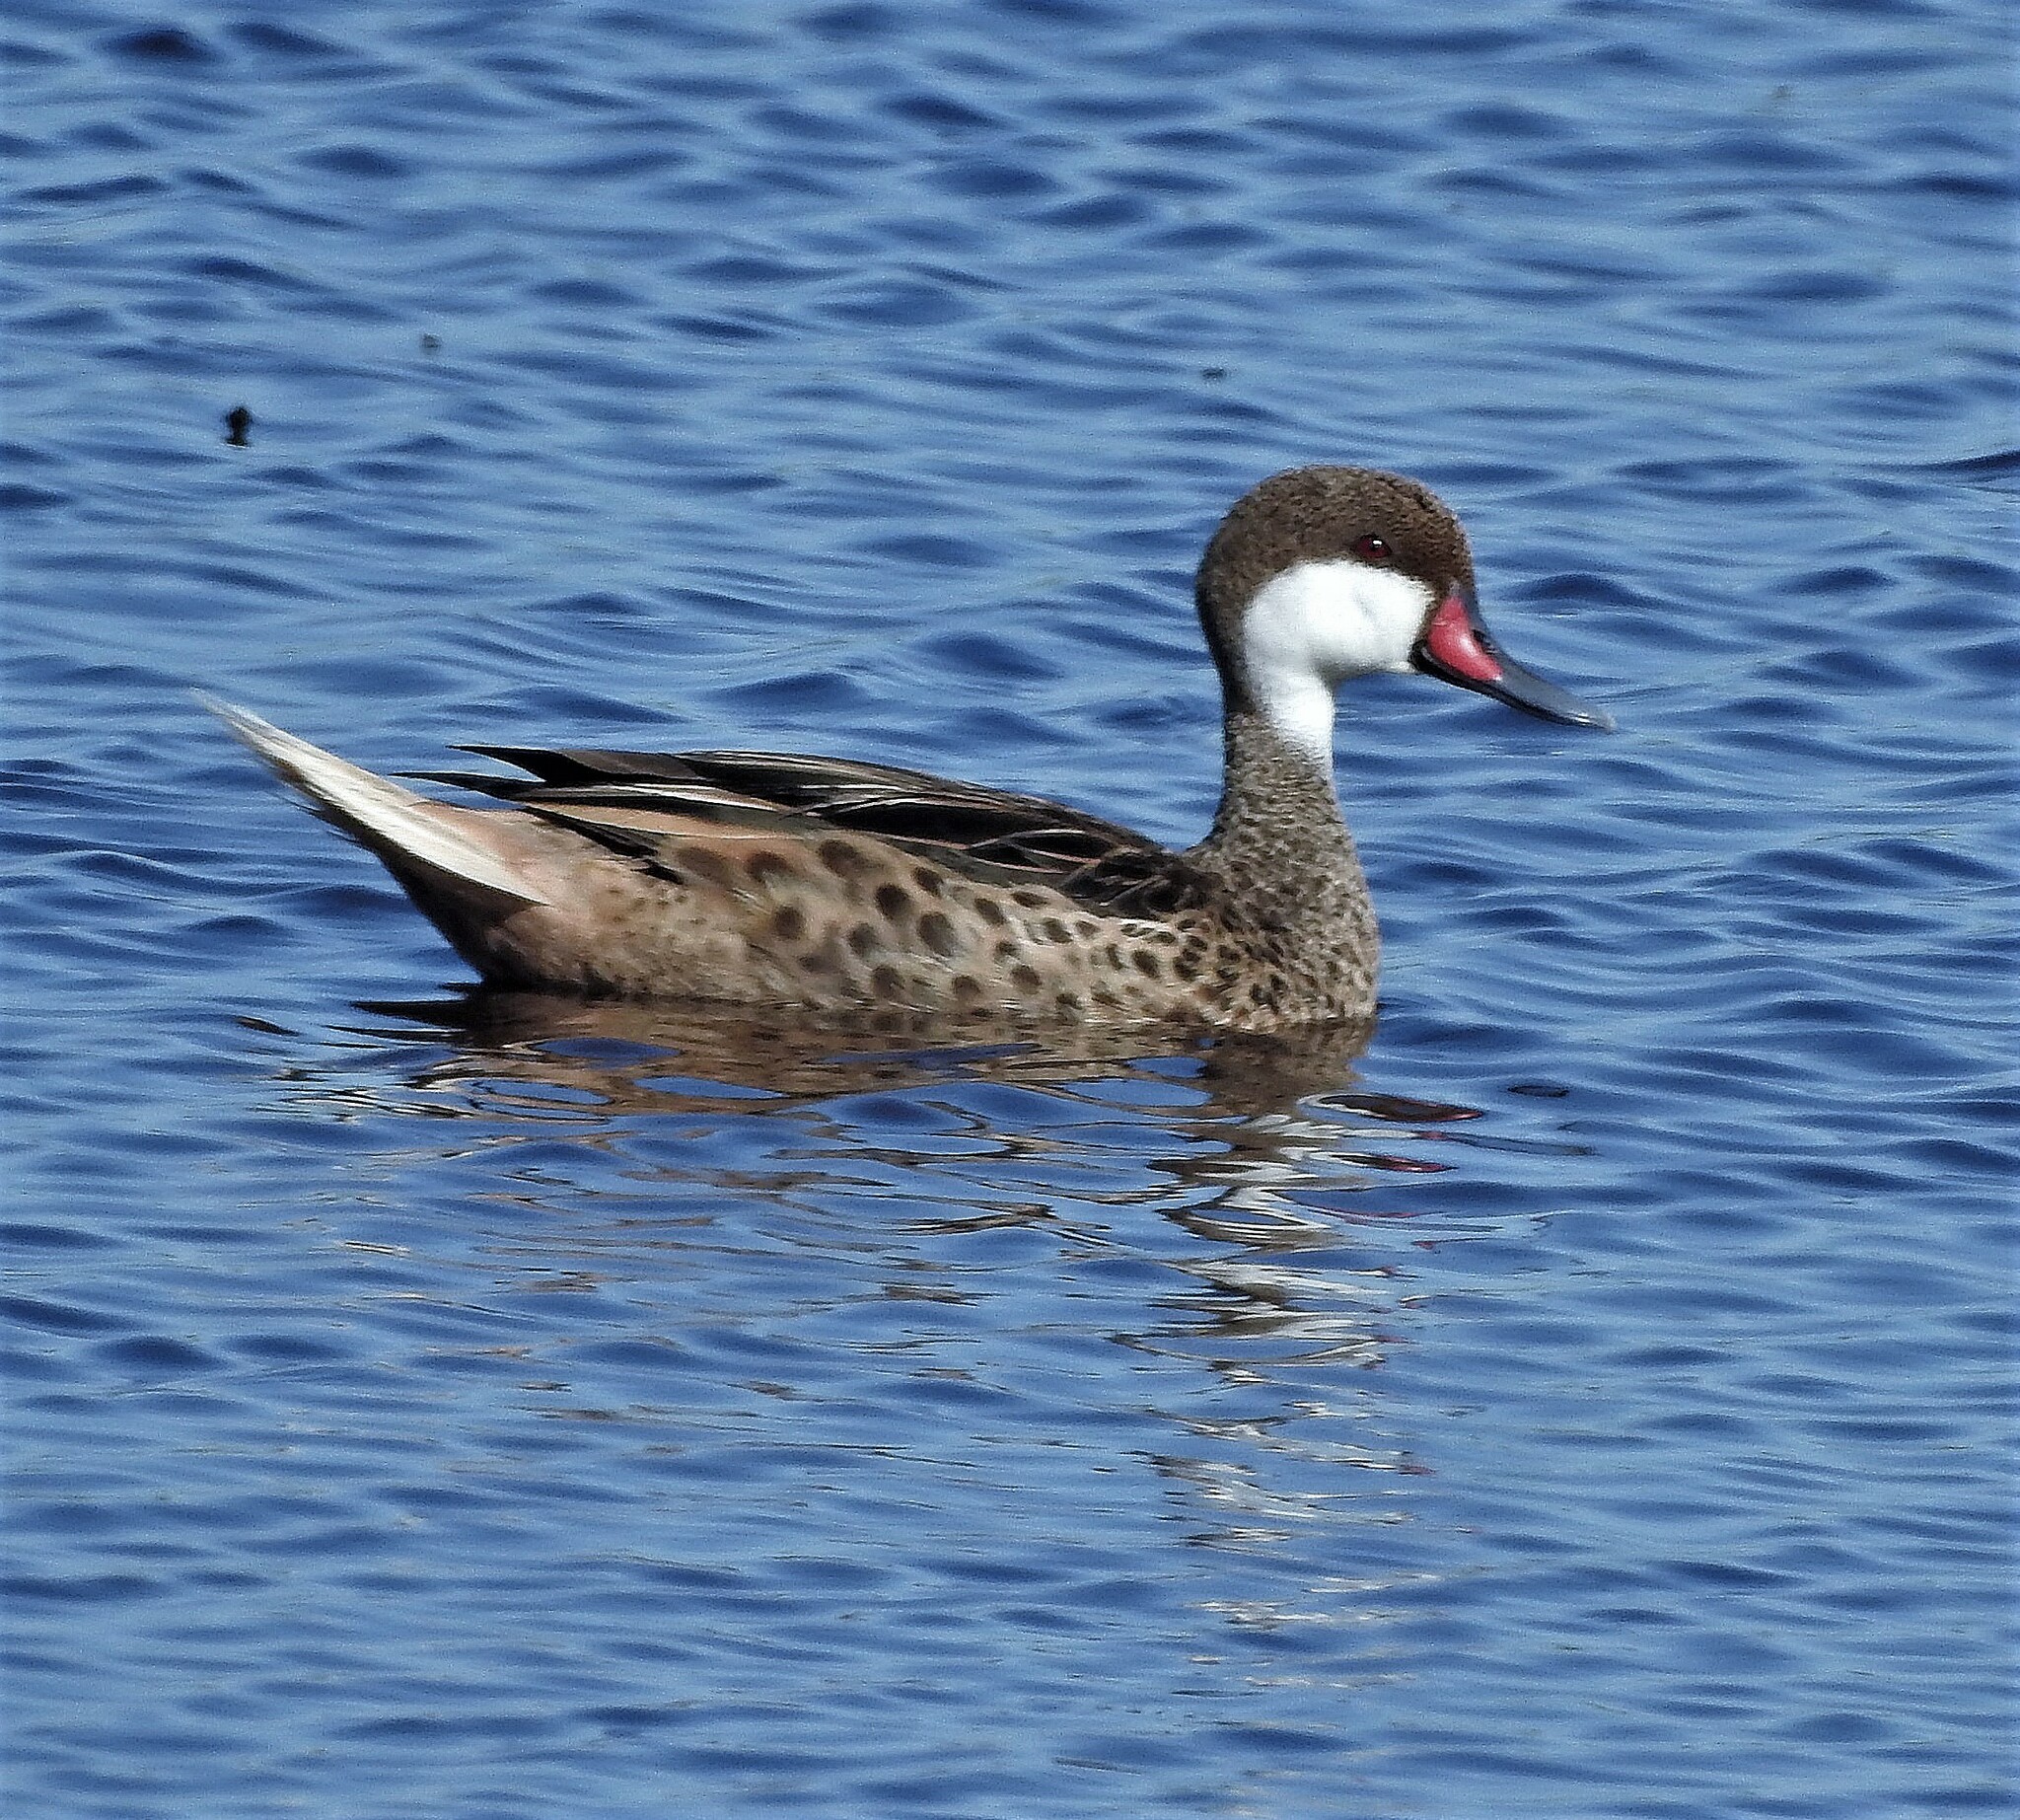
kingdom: Animalia
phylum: Chordata
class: Aves
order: Anseriformes
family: Anatidae
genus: Anas
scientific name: Anas bahamensis
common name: White-cheeked pintail
